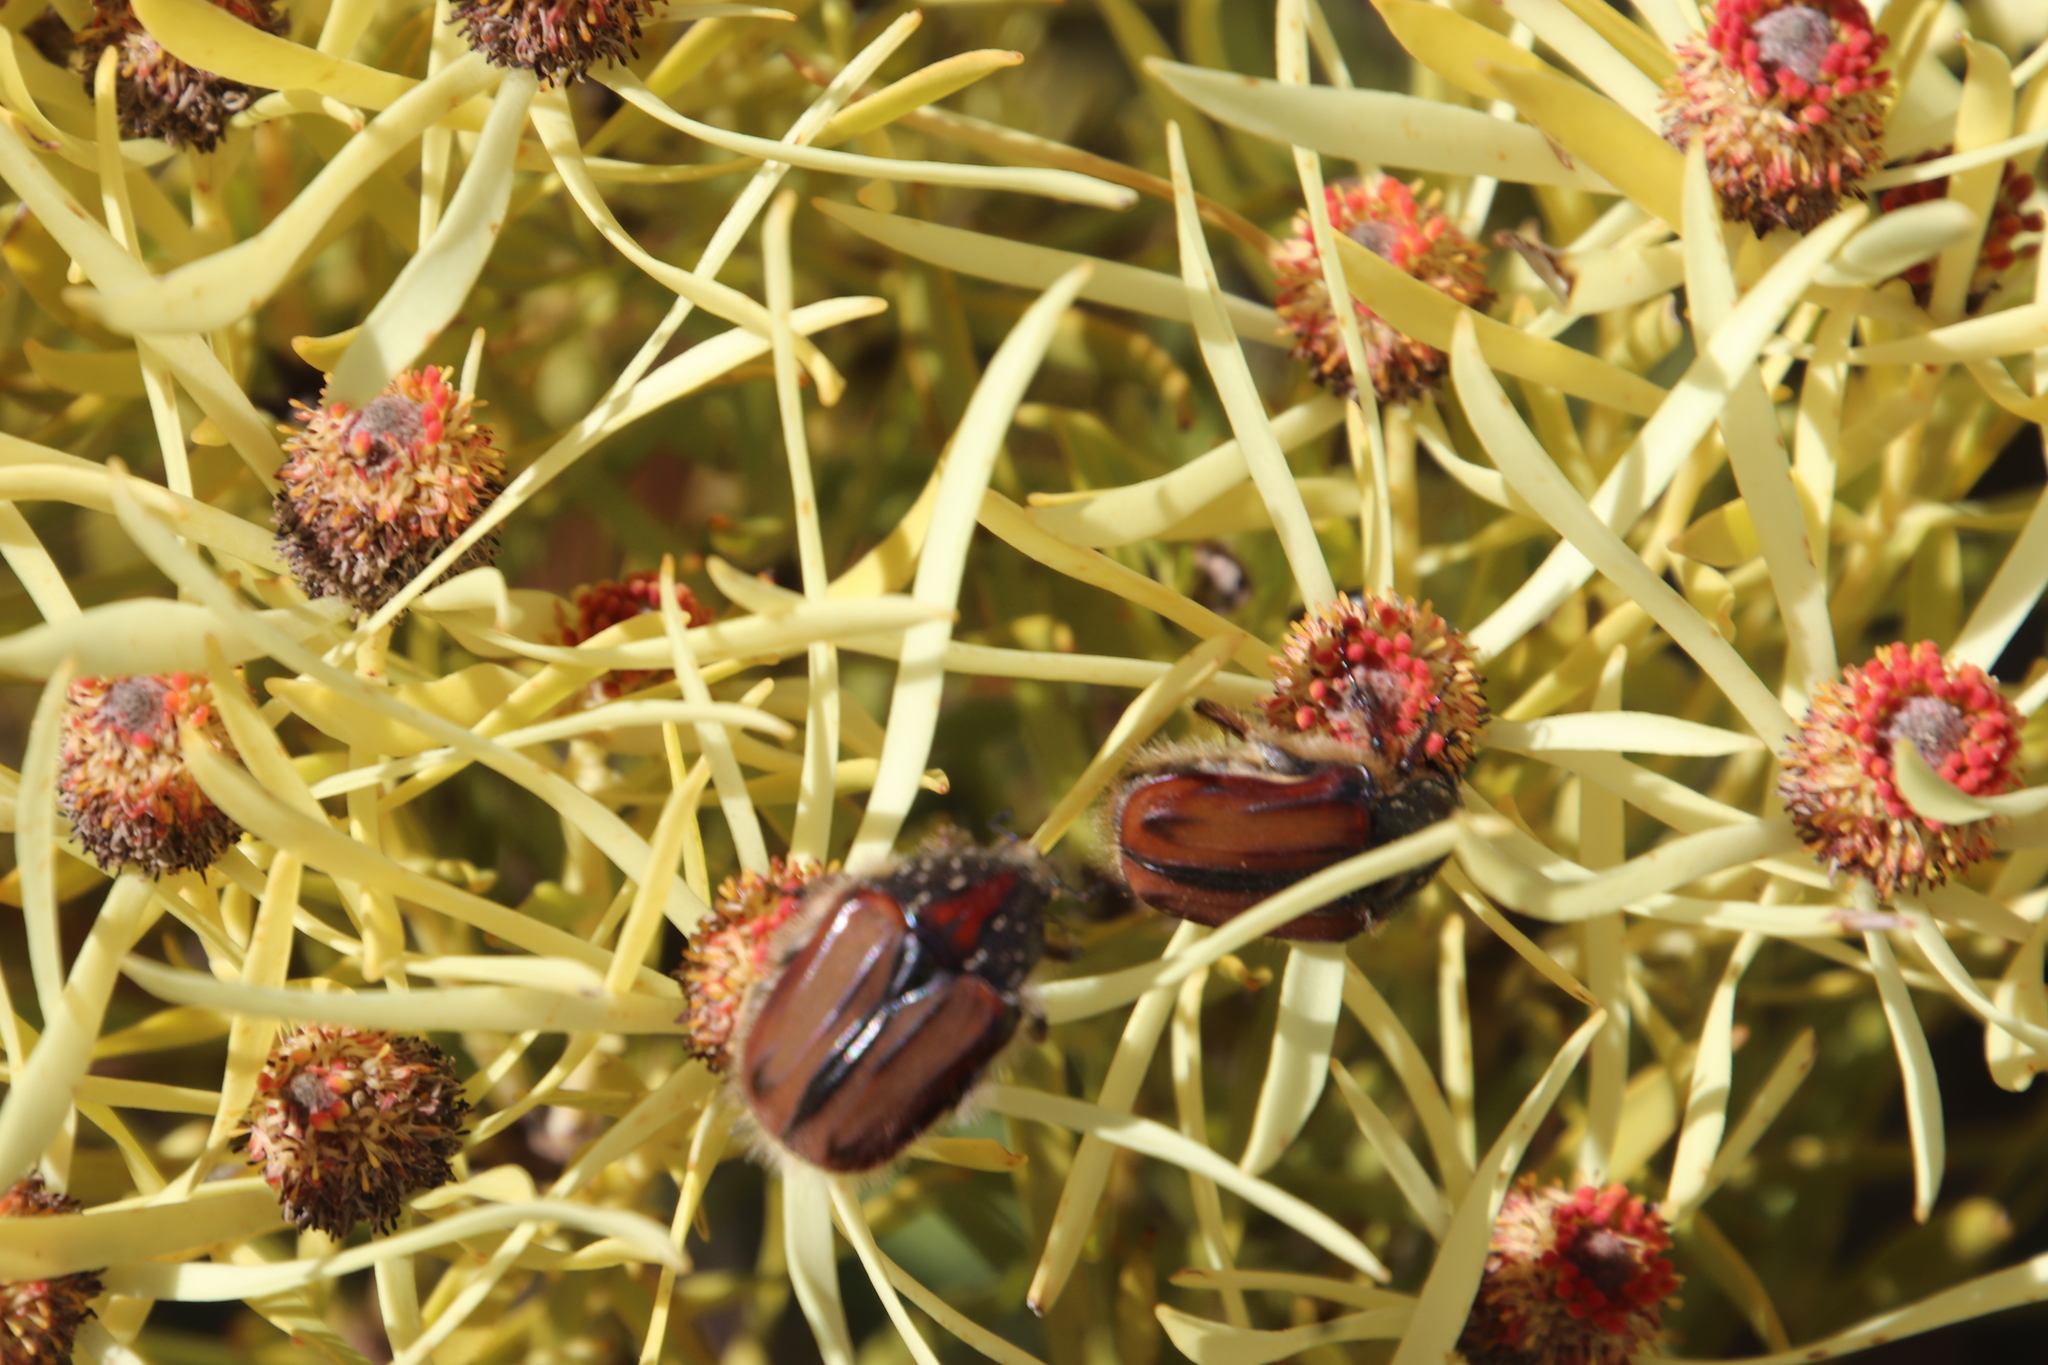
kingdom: Plantae
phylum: Tracheophyta
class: Magnoliopsida
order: Proteales
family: Proteaceae
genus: Leucadendron
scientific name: Leucadendron salignum
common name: Common sunshine conebush
